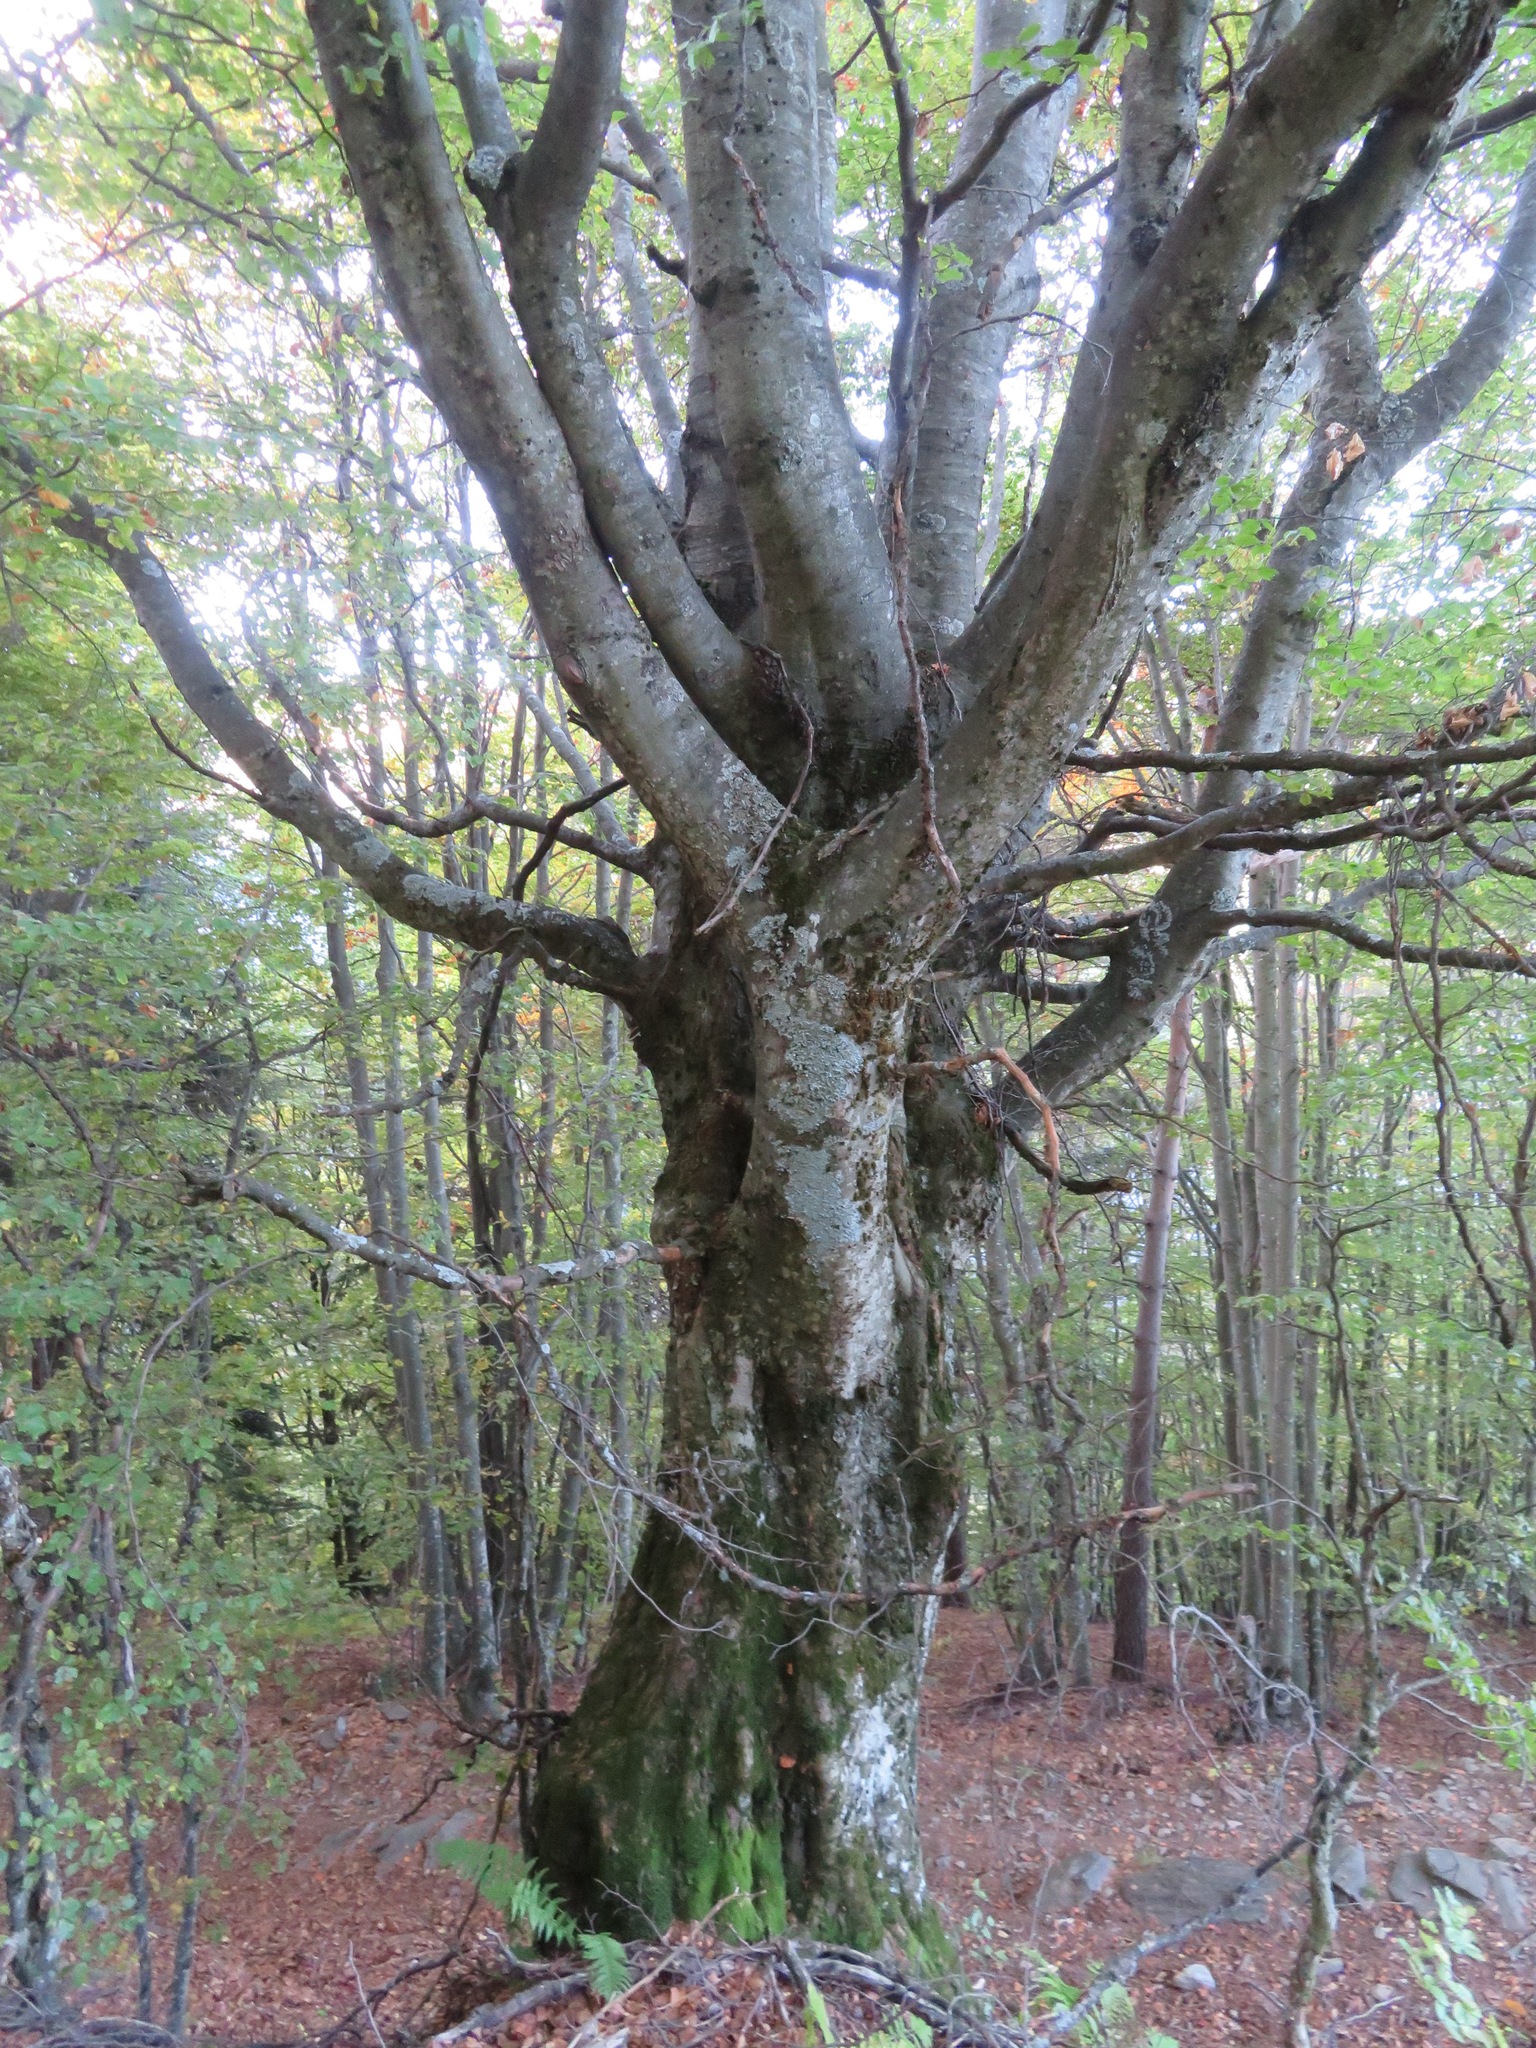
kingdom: Plantae
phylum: Tracheophyta
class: Magnoliopsida
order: Fagales
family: Fagaceae
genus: Fagus
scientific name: Fagus sylvatica
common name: Beech
